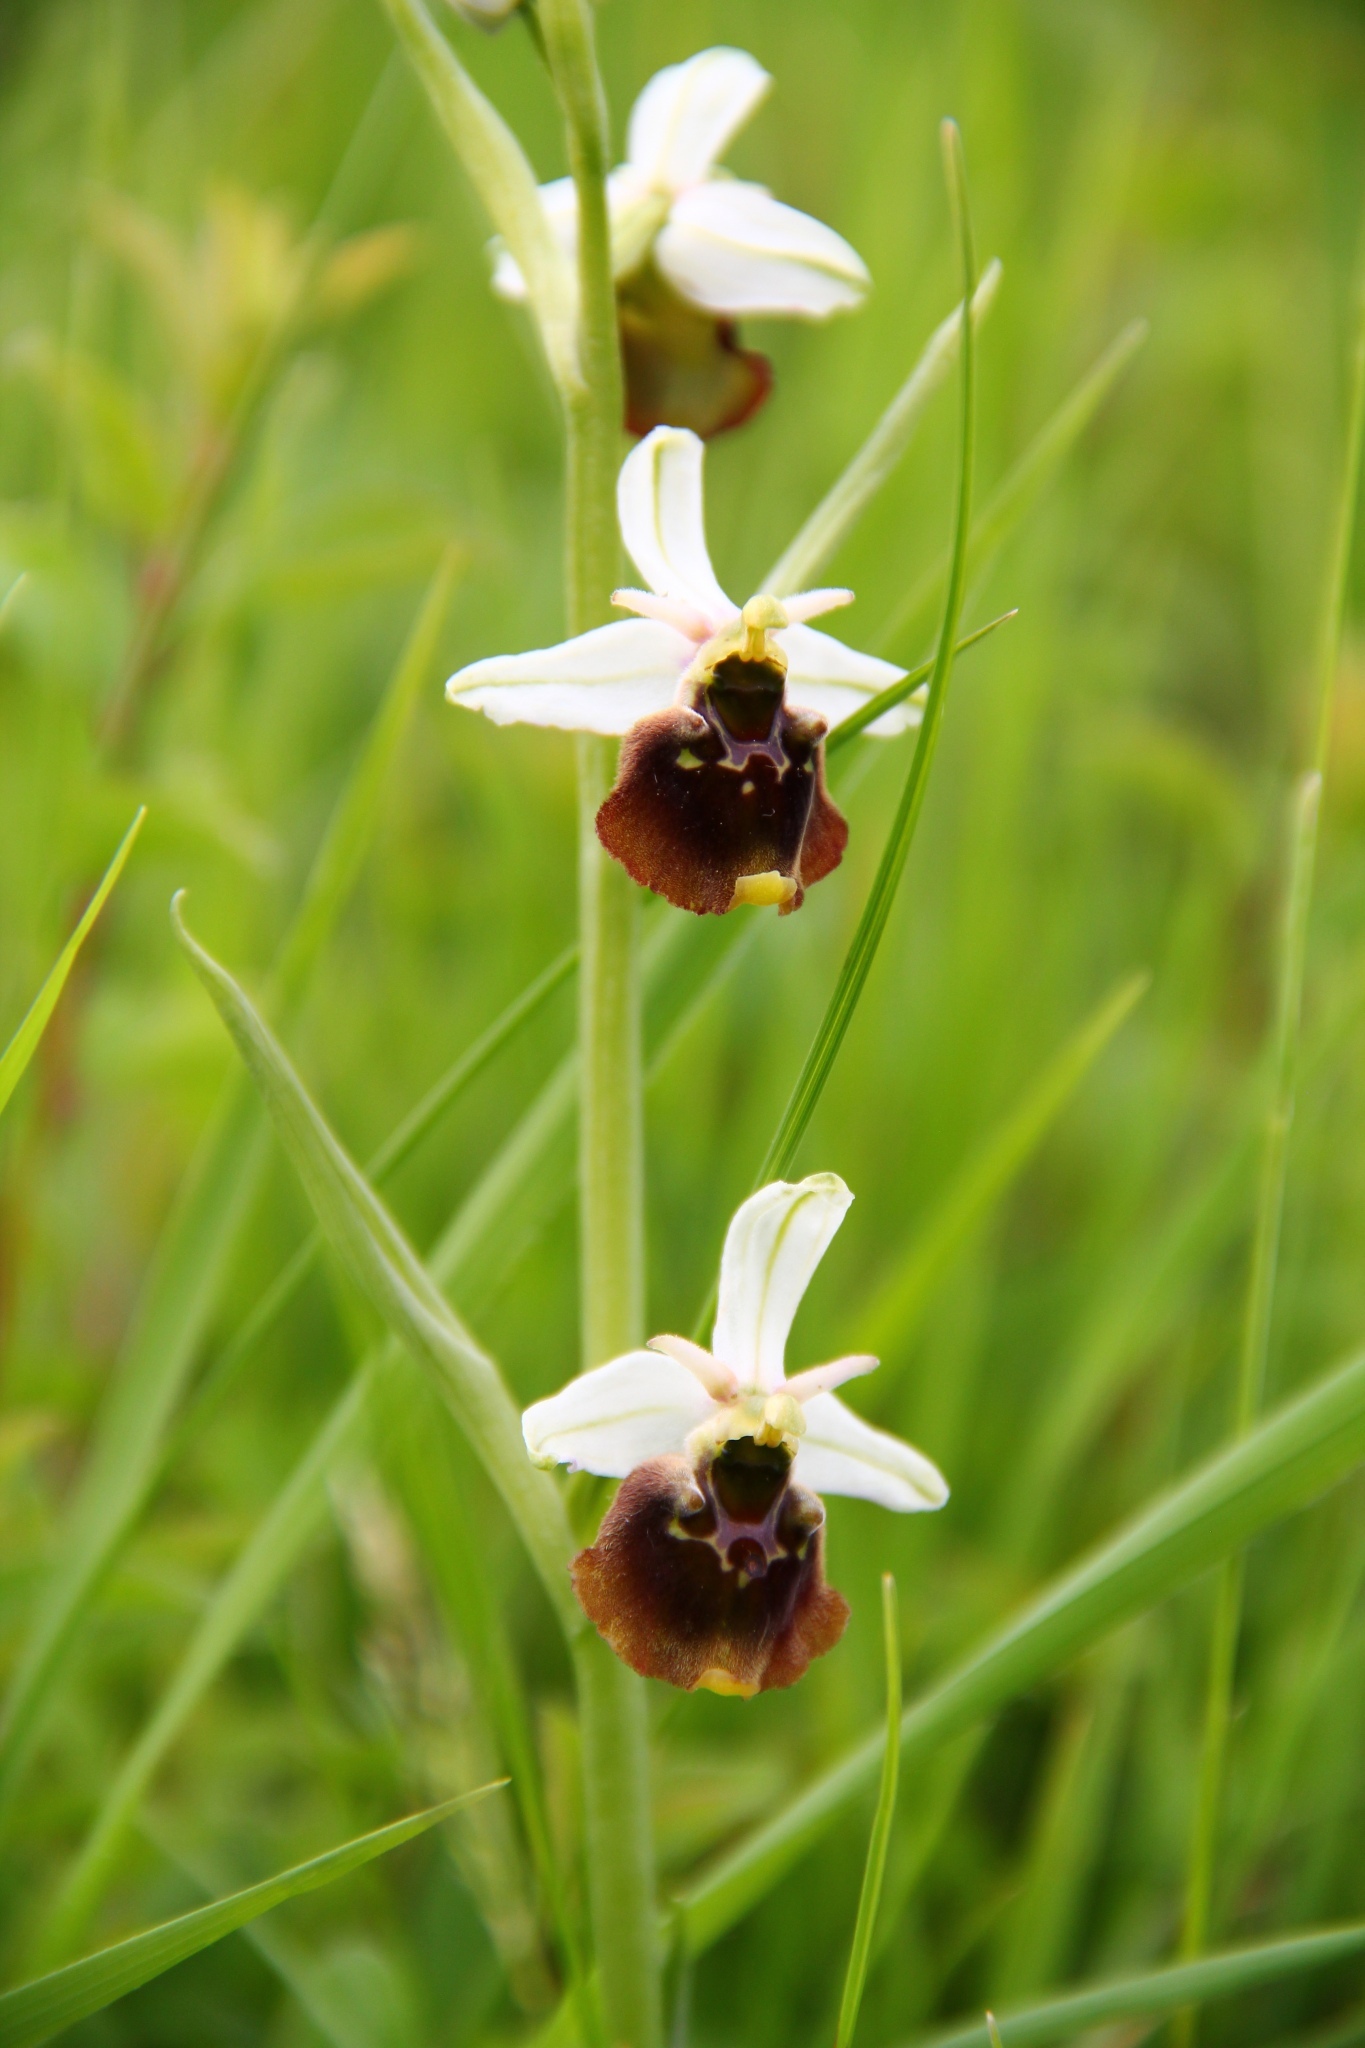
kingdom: Plantae
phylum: Tracheophyta
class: Liliopsida
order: Asparagales
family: Orchidaceae
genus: Ophrys
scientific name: Ophrys holosericea
